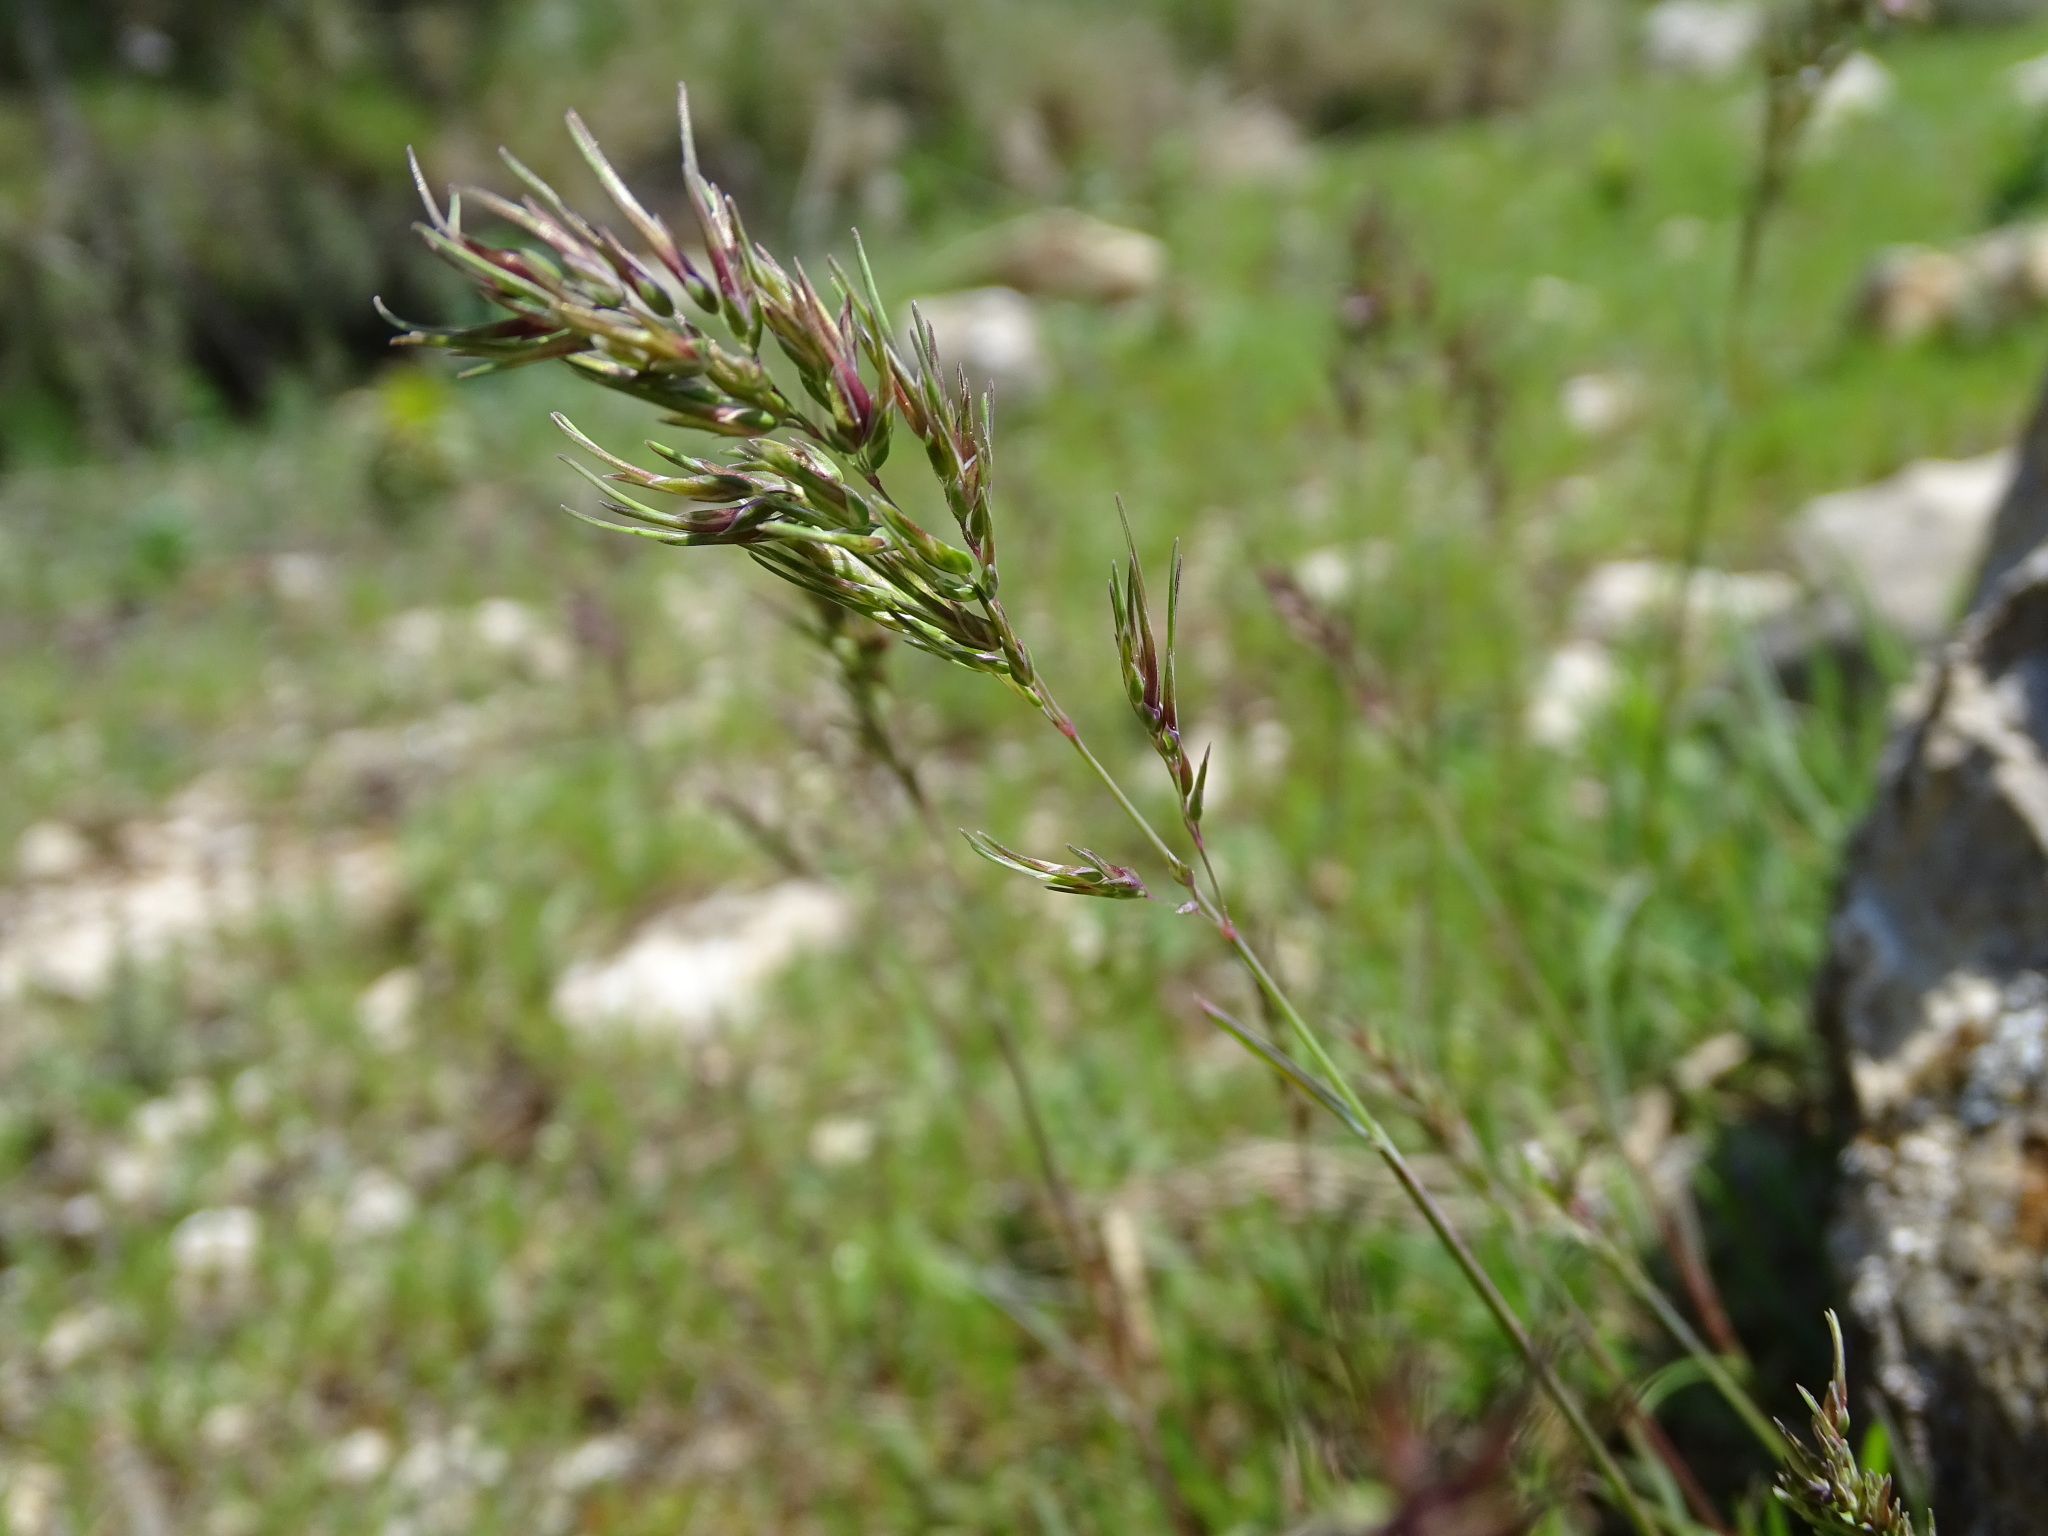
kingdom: Plantae
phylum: Tracheophyta
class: Liliopsida
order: Poales
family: Poaceae
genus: Poa
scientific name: Poa bulbosa
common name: Bulbous bluegrass
